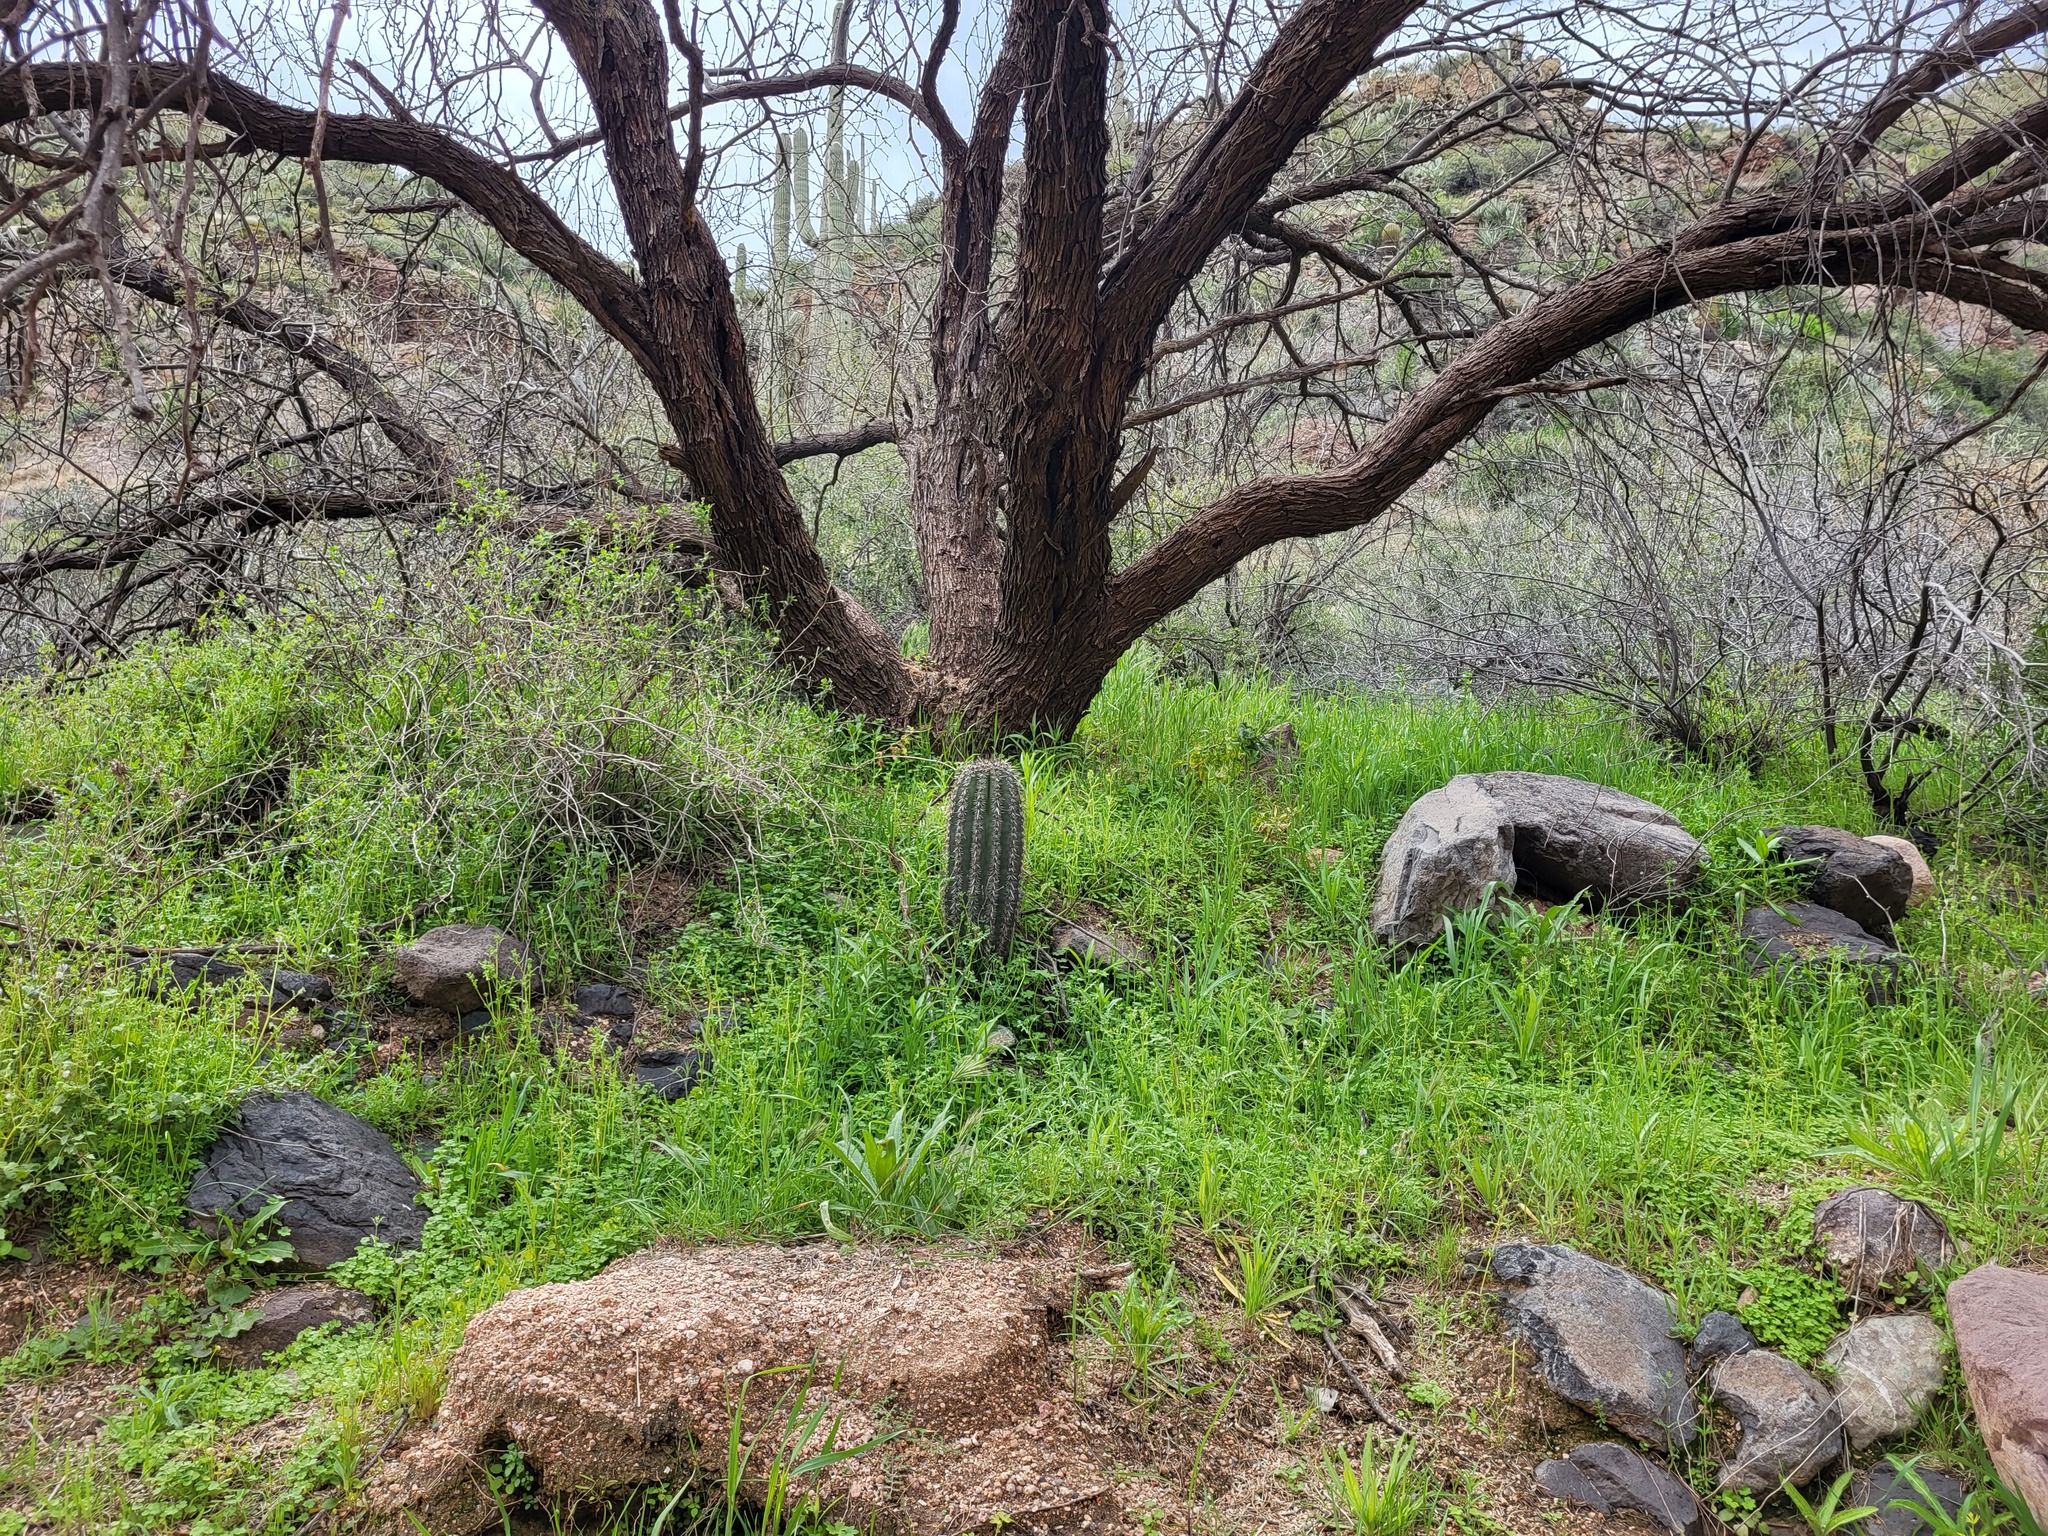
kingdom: Plantae
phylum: Tracheophyta
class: Magnoliopsida
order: Caryophyllales
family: Cactaceae
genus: Carnegiea
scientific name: Carnegiea gigantea
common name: Saguaro
